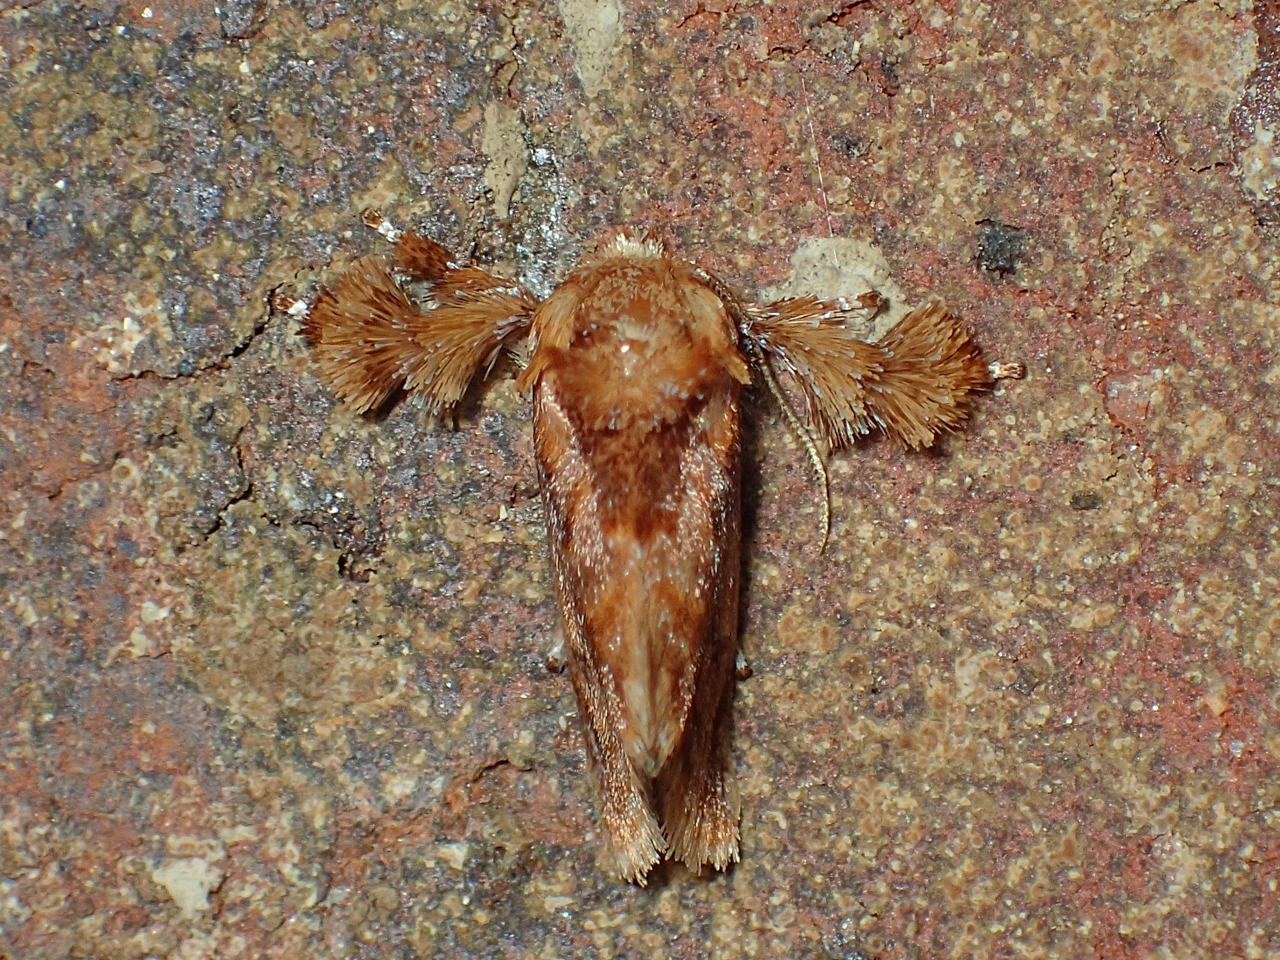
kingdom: Animalia
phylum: Arthropoda
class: Insecta
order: Lepidoptera
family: Limacodidae
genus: Isochaetes
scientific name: Isochaetes beutenmuelleri
